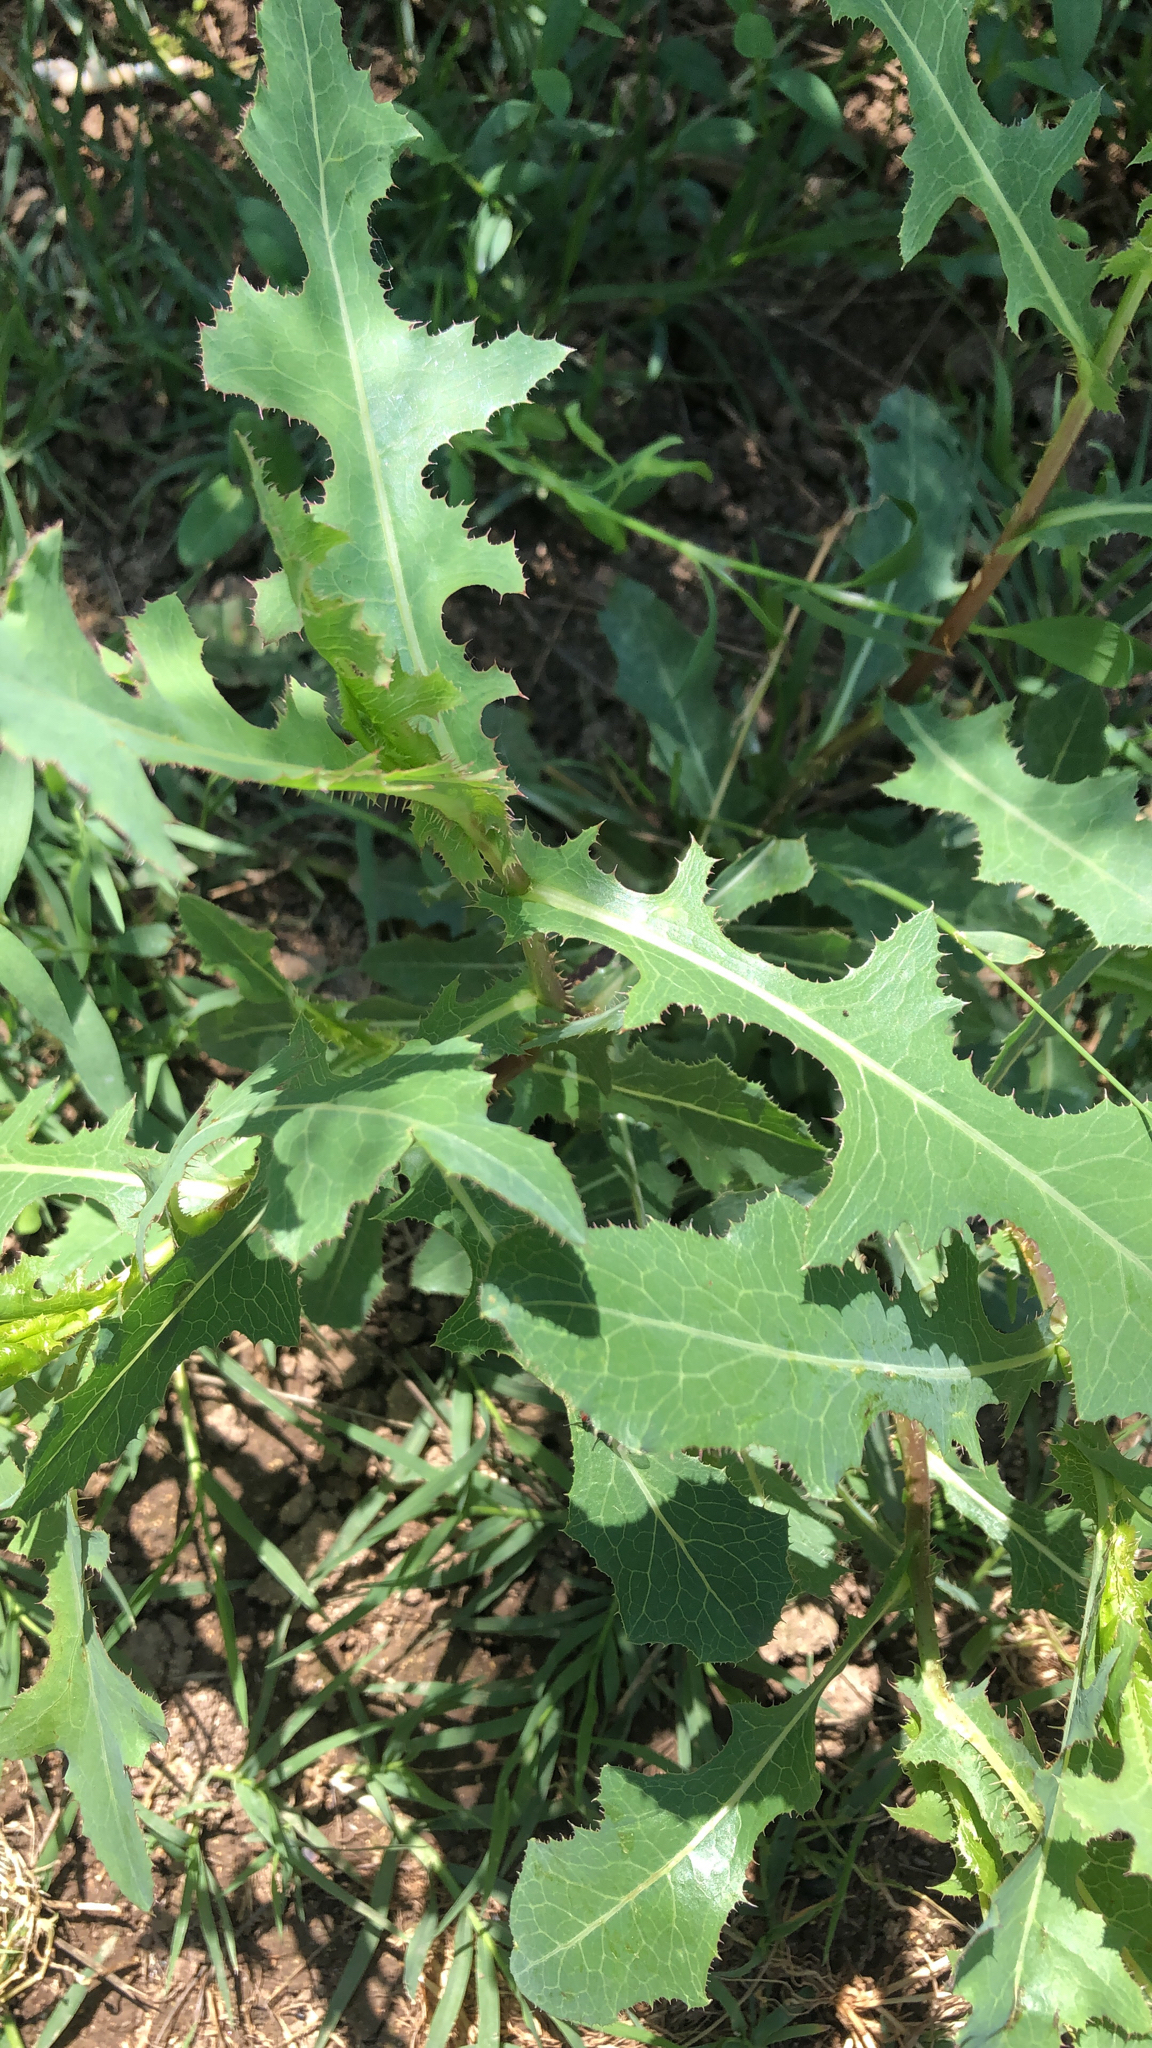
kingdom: Plantae
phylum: Tracheophyta
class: Magnoliopsida
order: Asterales
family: Asteraceae
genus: Lactuca
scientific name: Lactuca serriola
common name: Prickly lettuce
